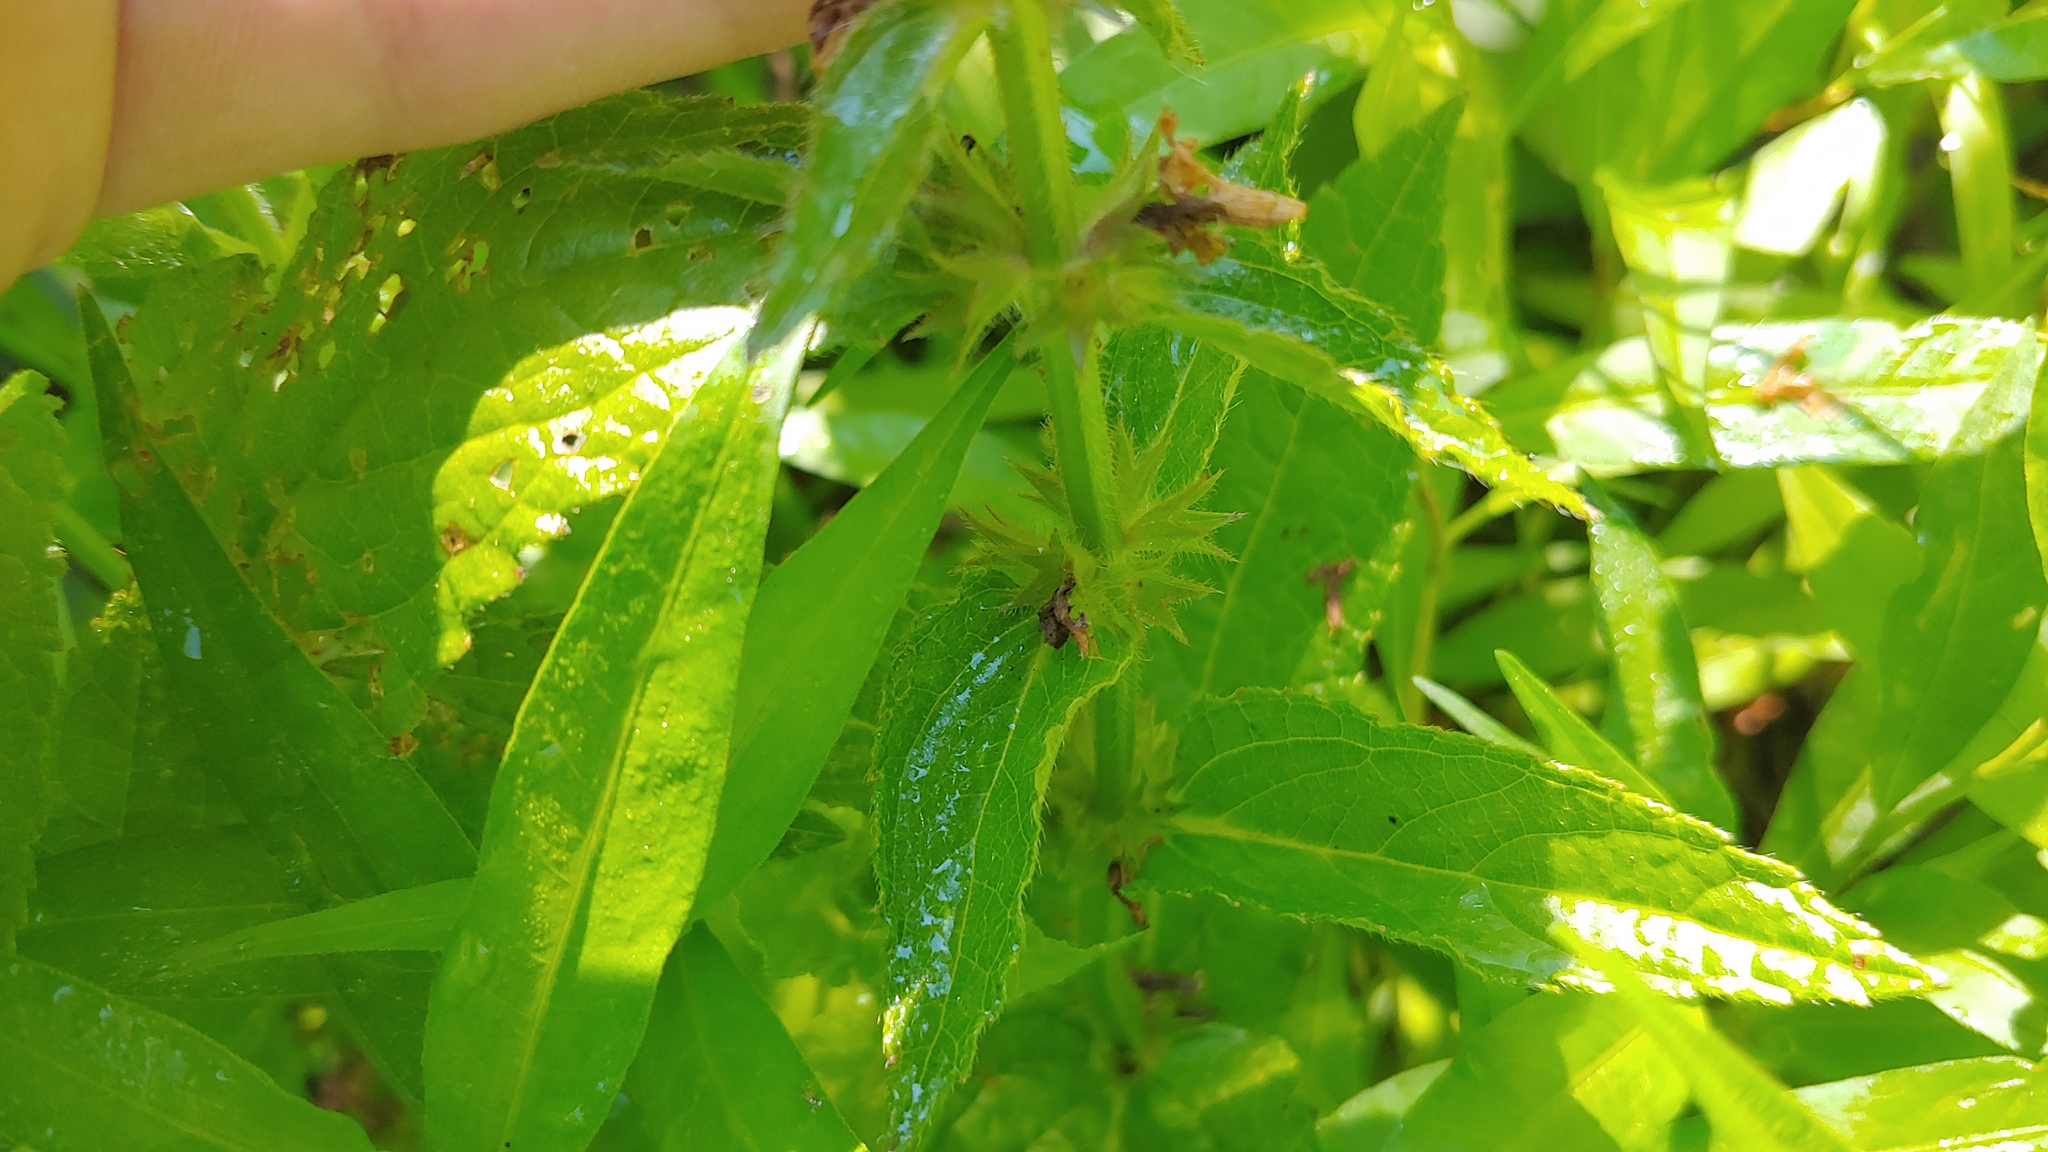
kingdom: Plantae
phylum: Tracheophyta
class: Magnoliopsida
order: Lamiales
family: Lamiaceae
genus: Stachys
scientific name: Stachys hispida
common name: Hispid hedge-nettle
